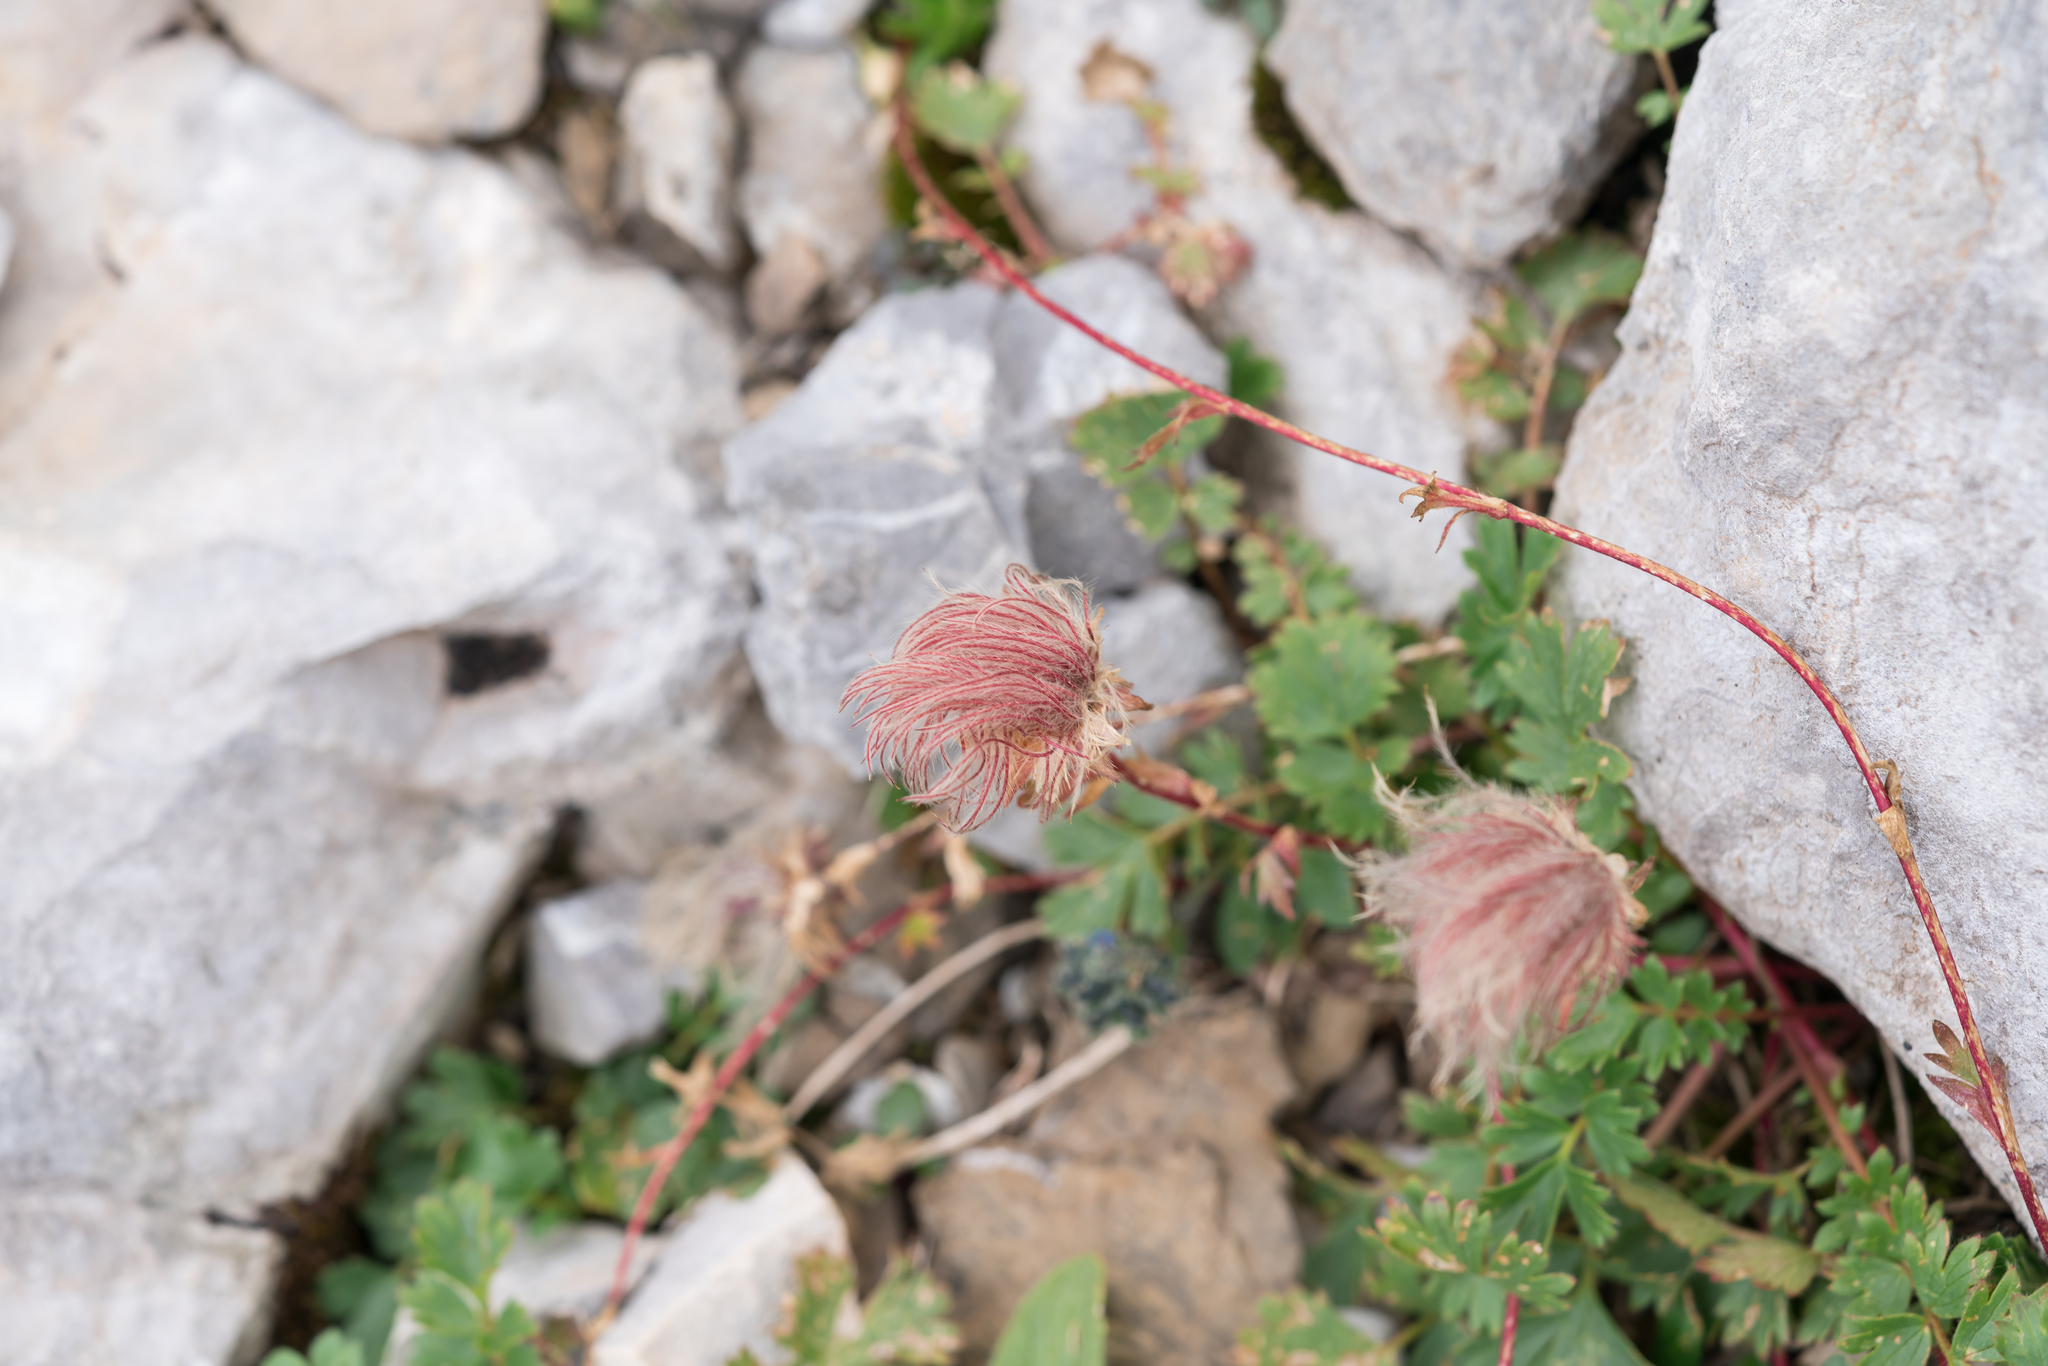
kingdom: Plantae
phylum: Tracheophyta
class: Magnoliopsida
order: Rosales
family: Rosaceae
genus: Geum
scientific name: Geum reptans
